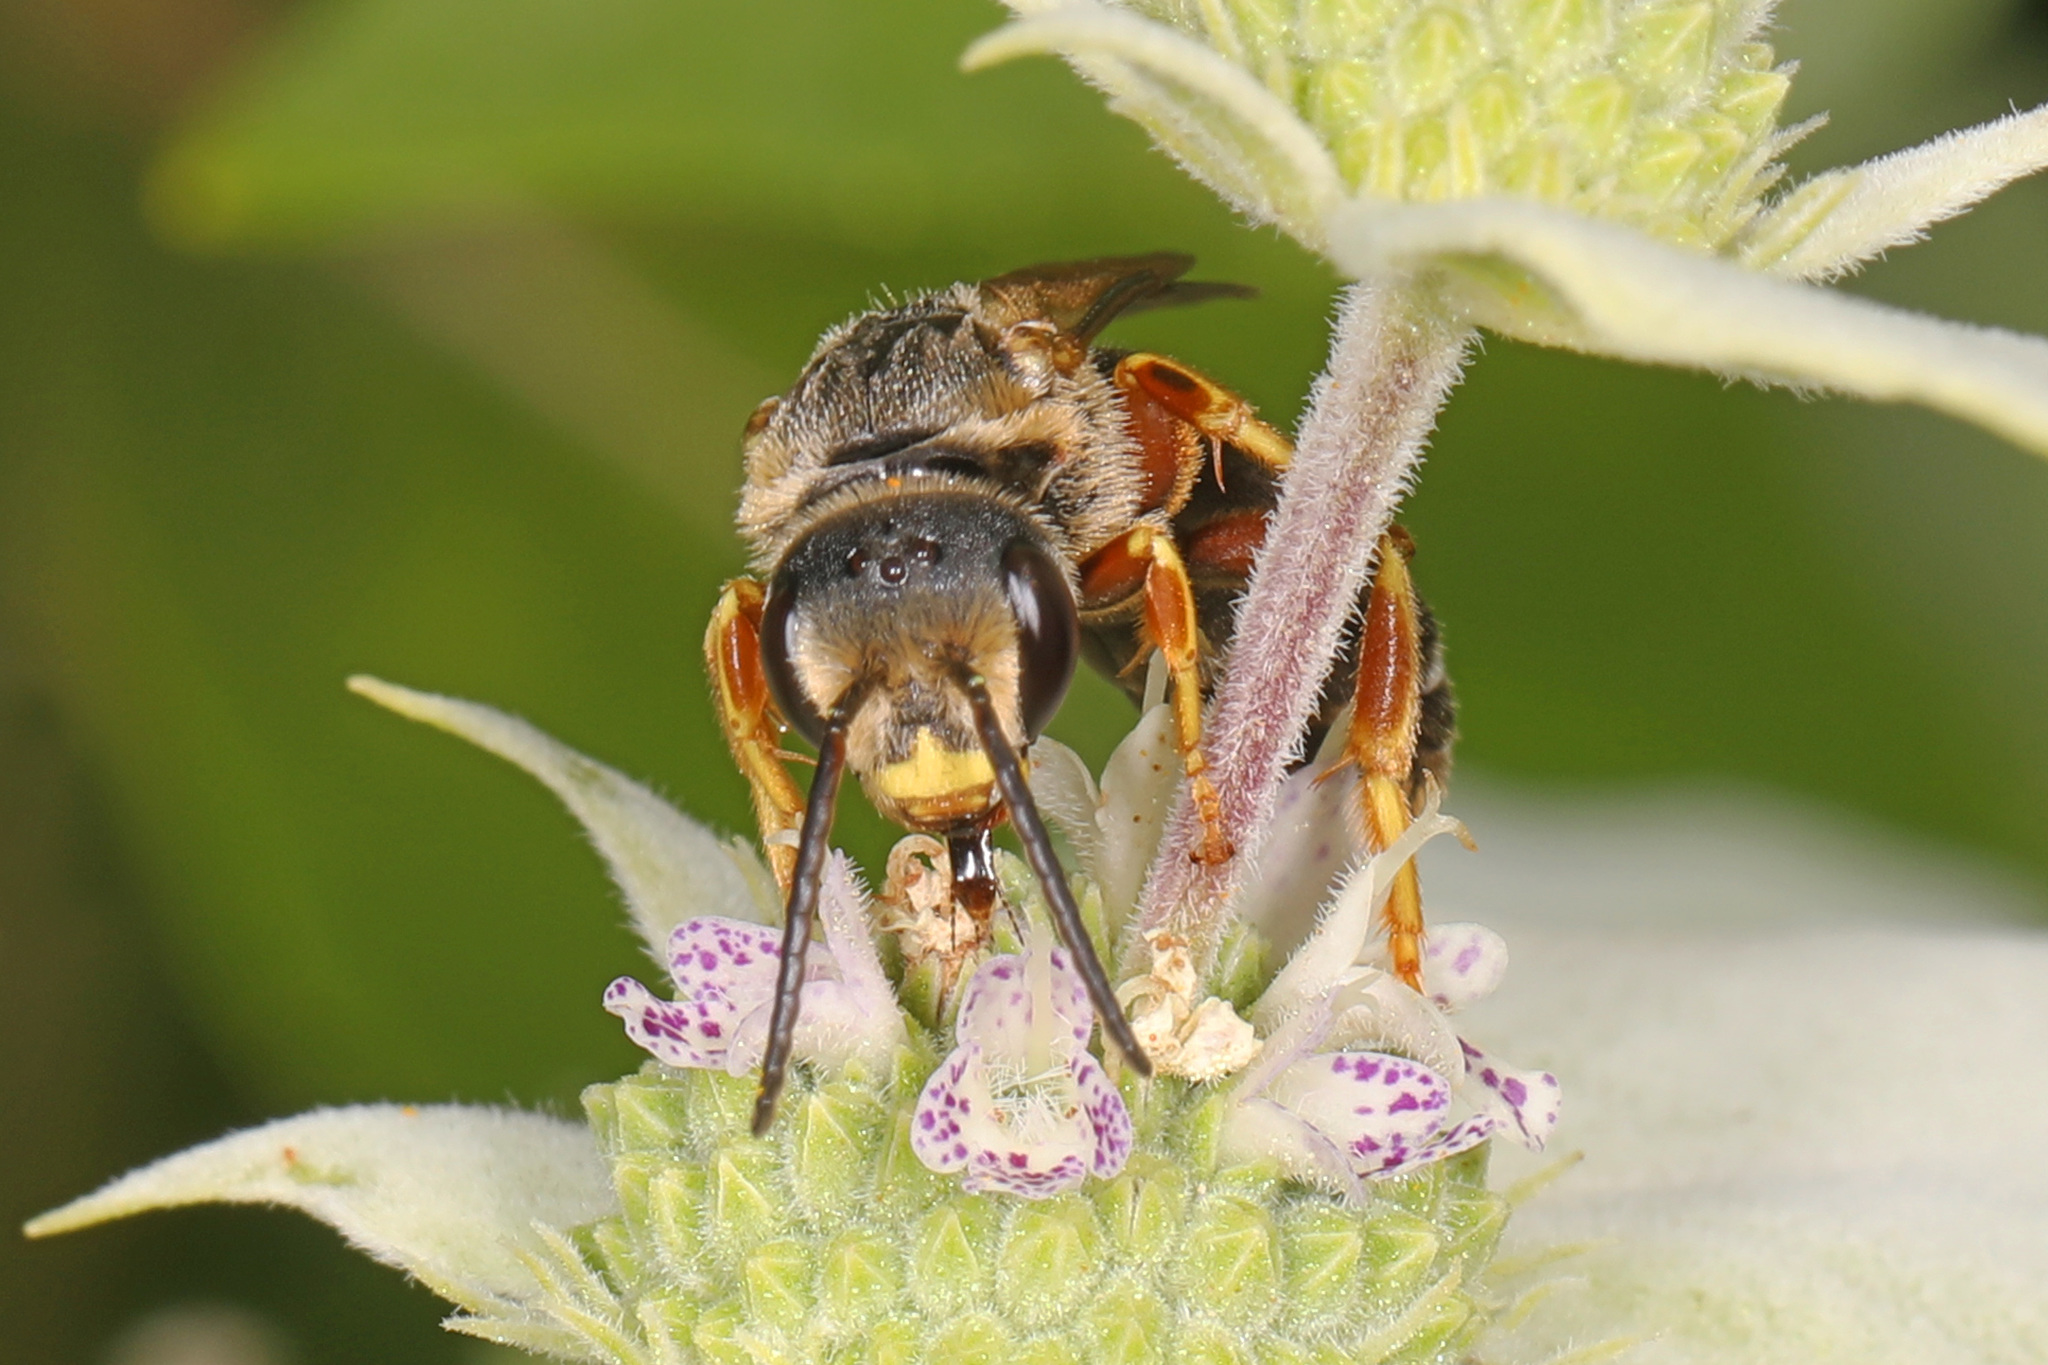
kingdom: Animalia
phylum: Arthropoda
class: Insecta
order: Hymenoptera
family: Halictidae
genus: Halictus
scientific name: Halictus parallelus
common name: Parallel-striped sweat bee
